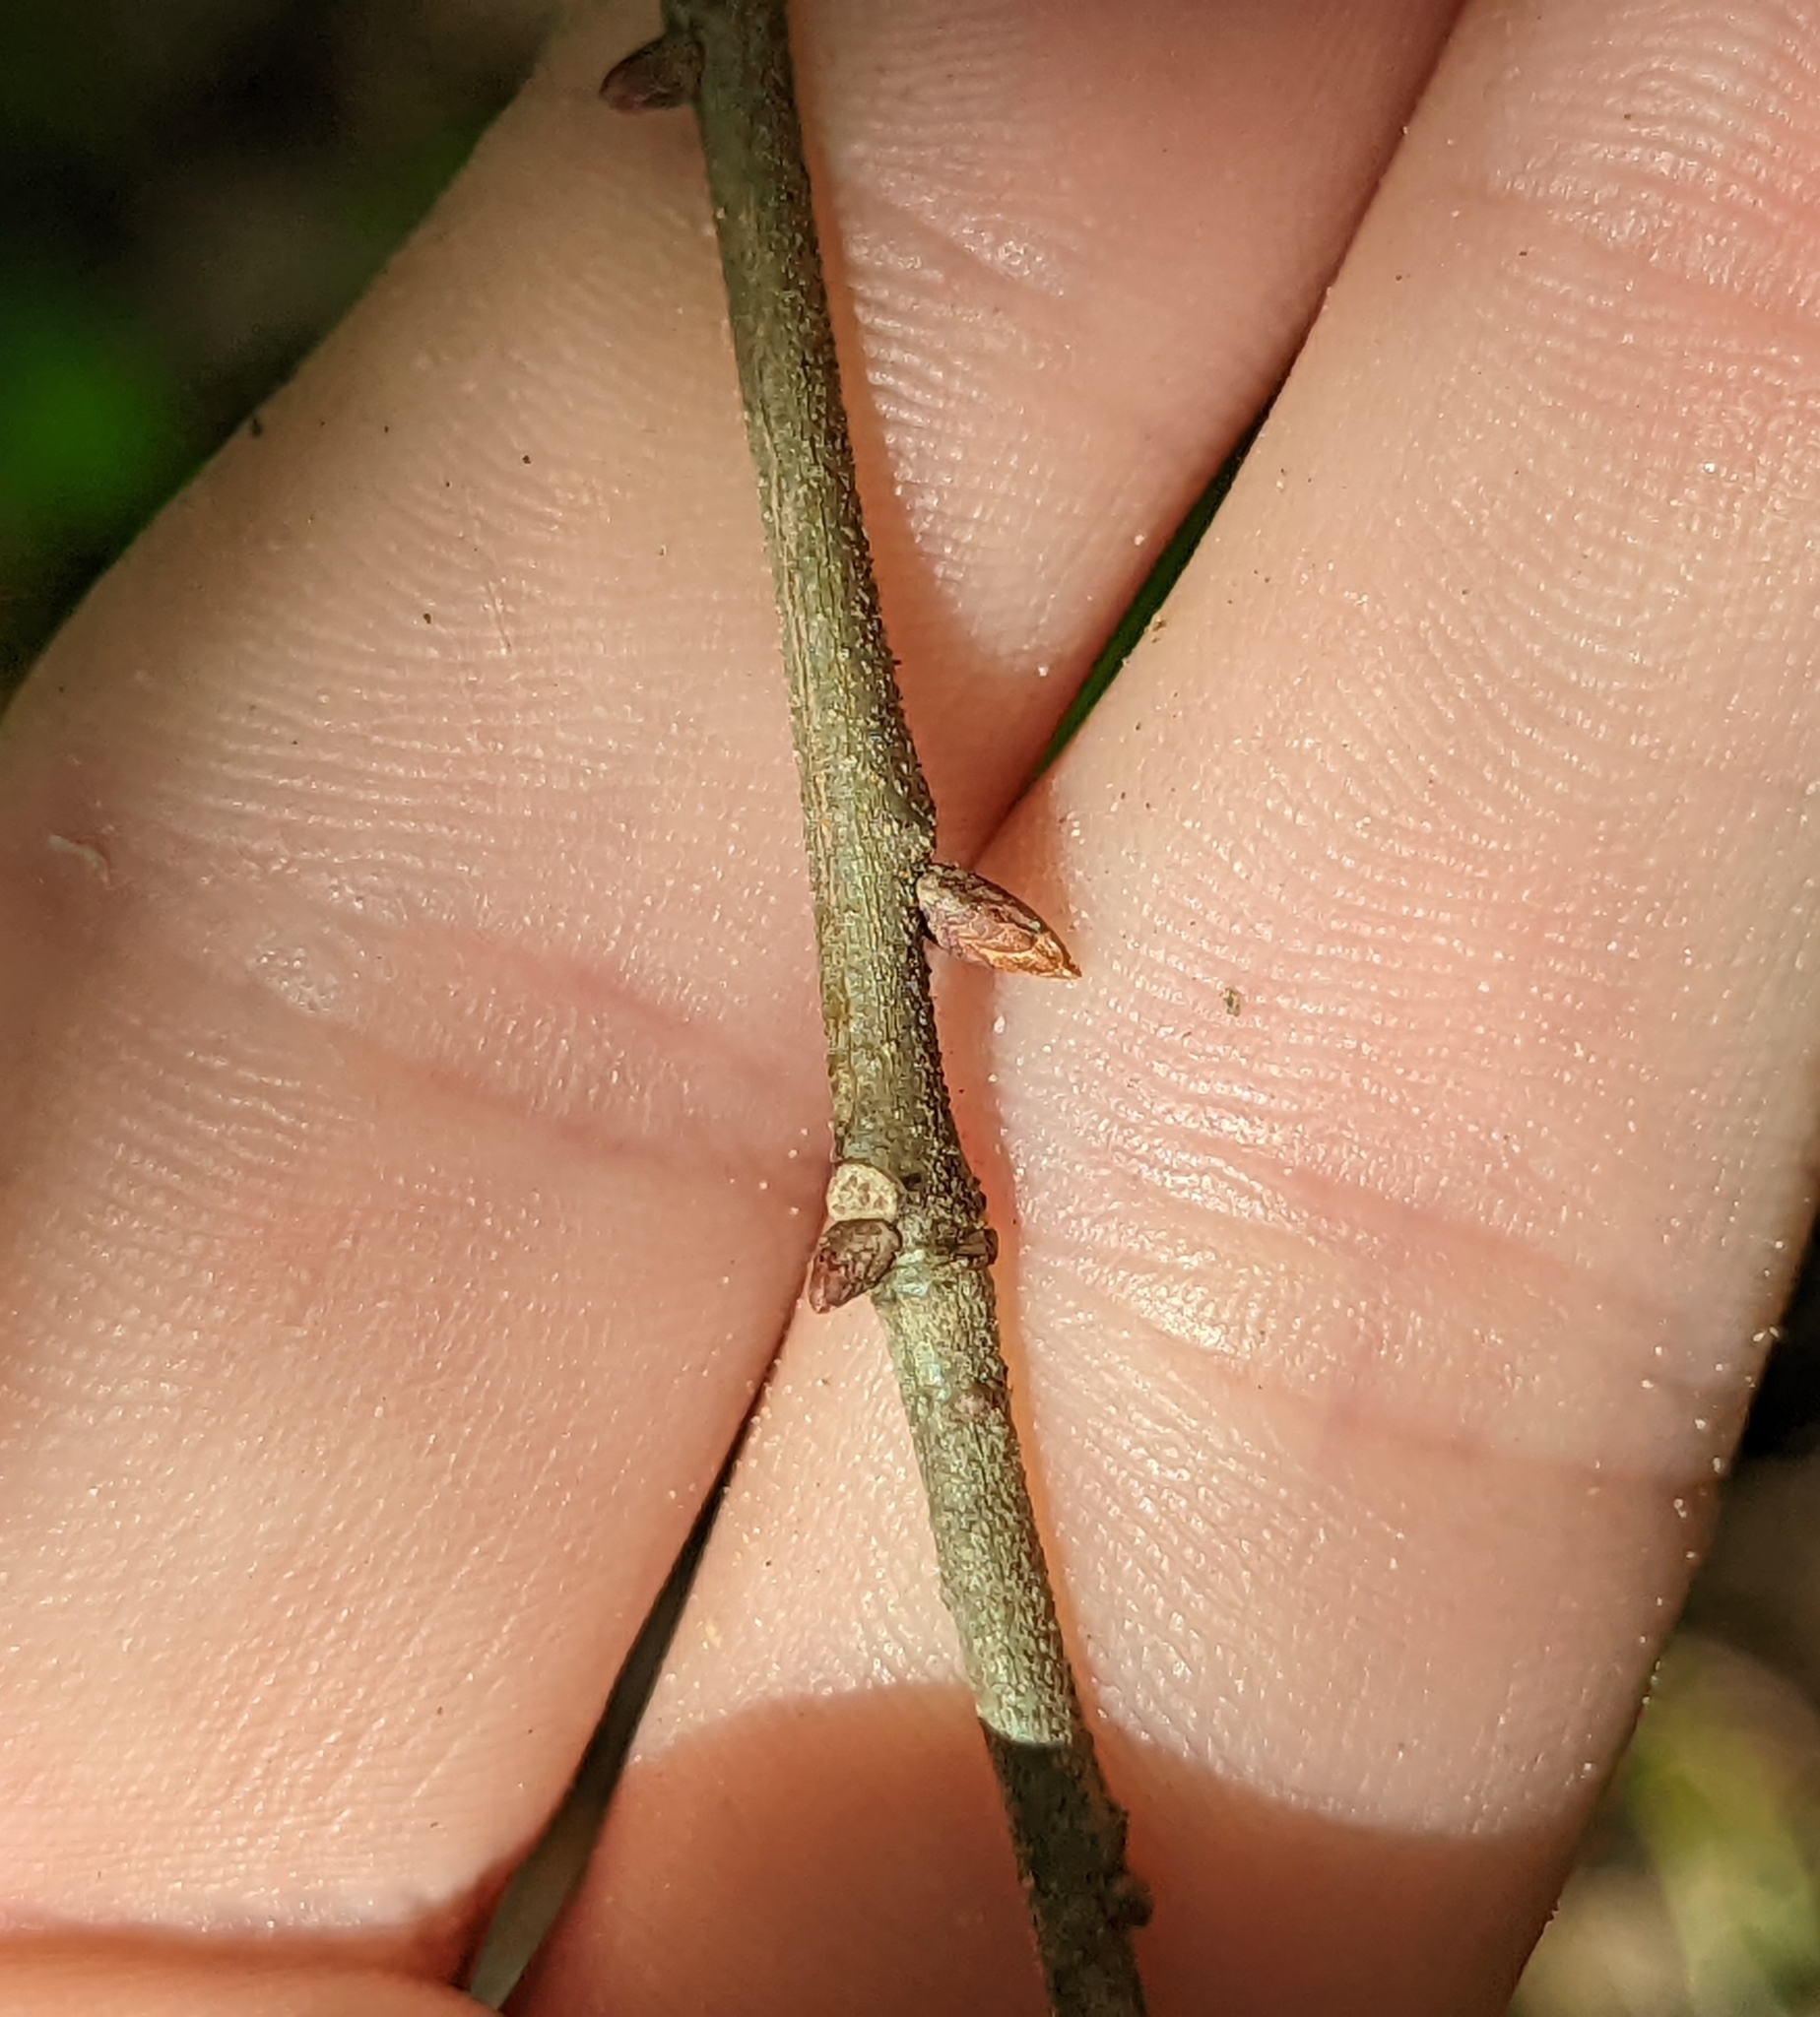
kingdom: Plantae
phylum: Tracheophyta
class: Magnoliopsida
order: Fagales
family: Fagaceae
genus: Quercus
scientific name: Quercus myrtifolia
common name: Myrtle oak
